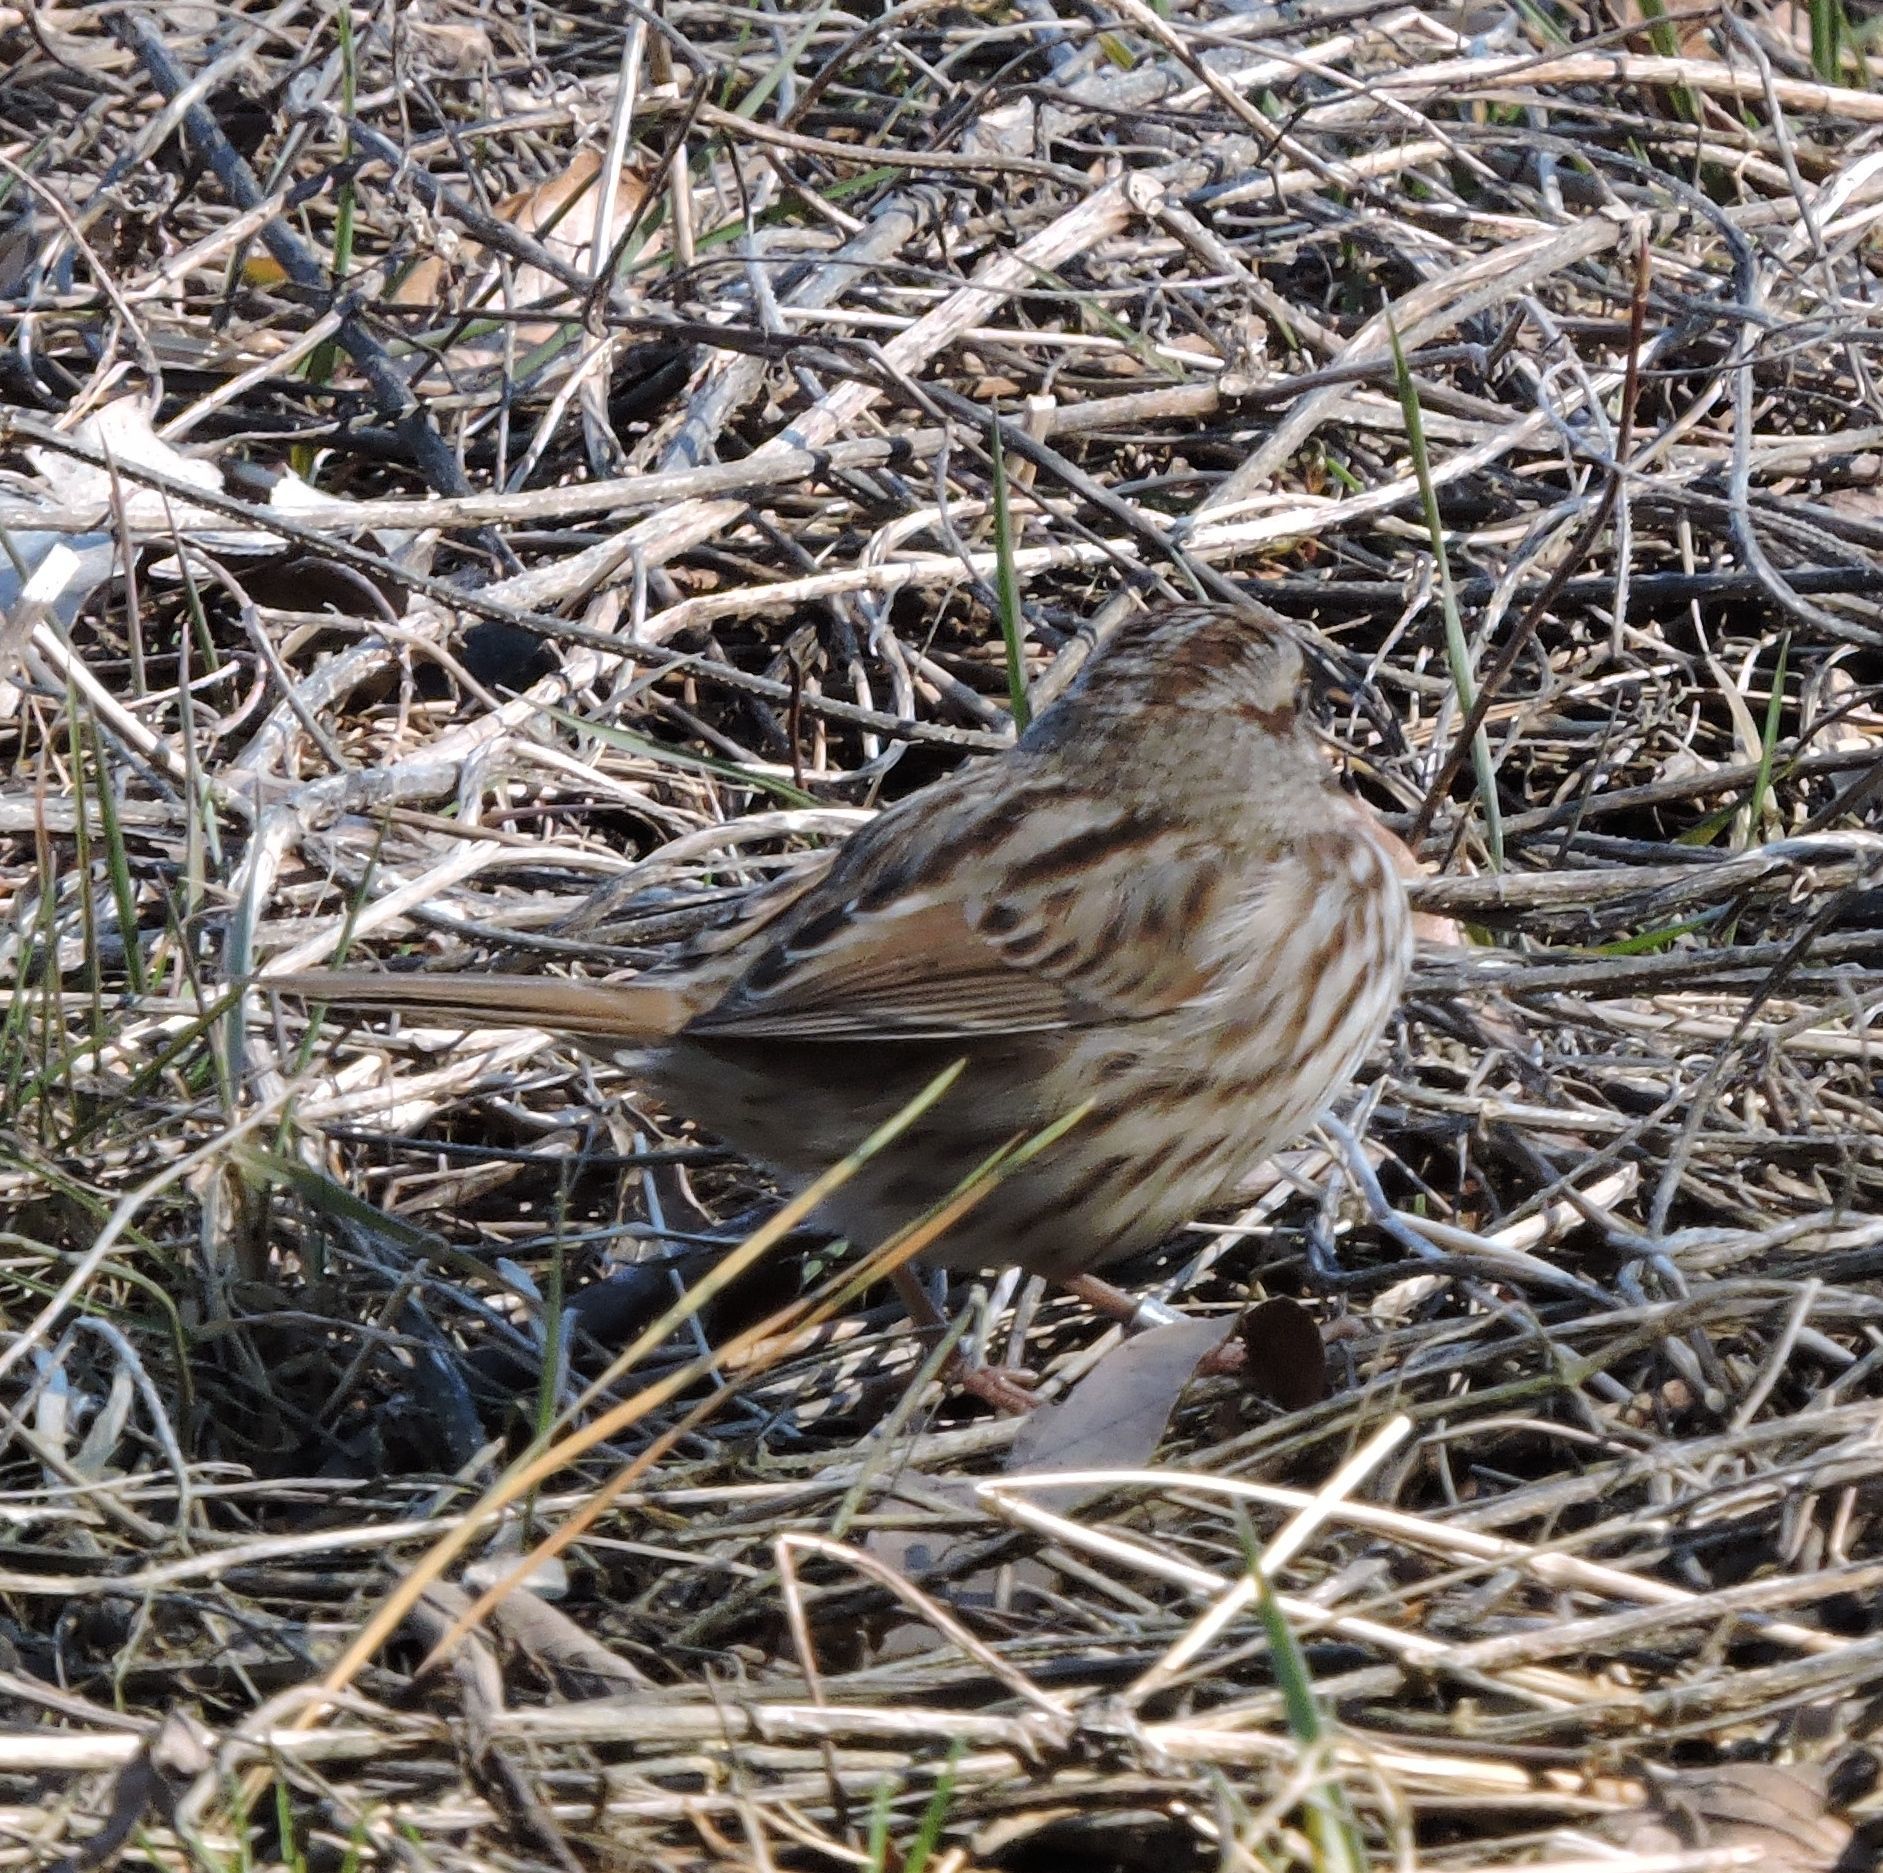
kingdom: Animalia
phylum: Chordata
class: Aves
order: Passeriformes
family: Passerellidae
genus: Melospiza
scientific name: Melospiza melodia
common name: Song sparrow
